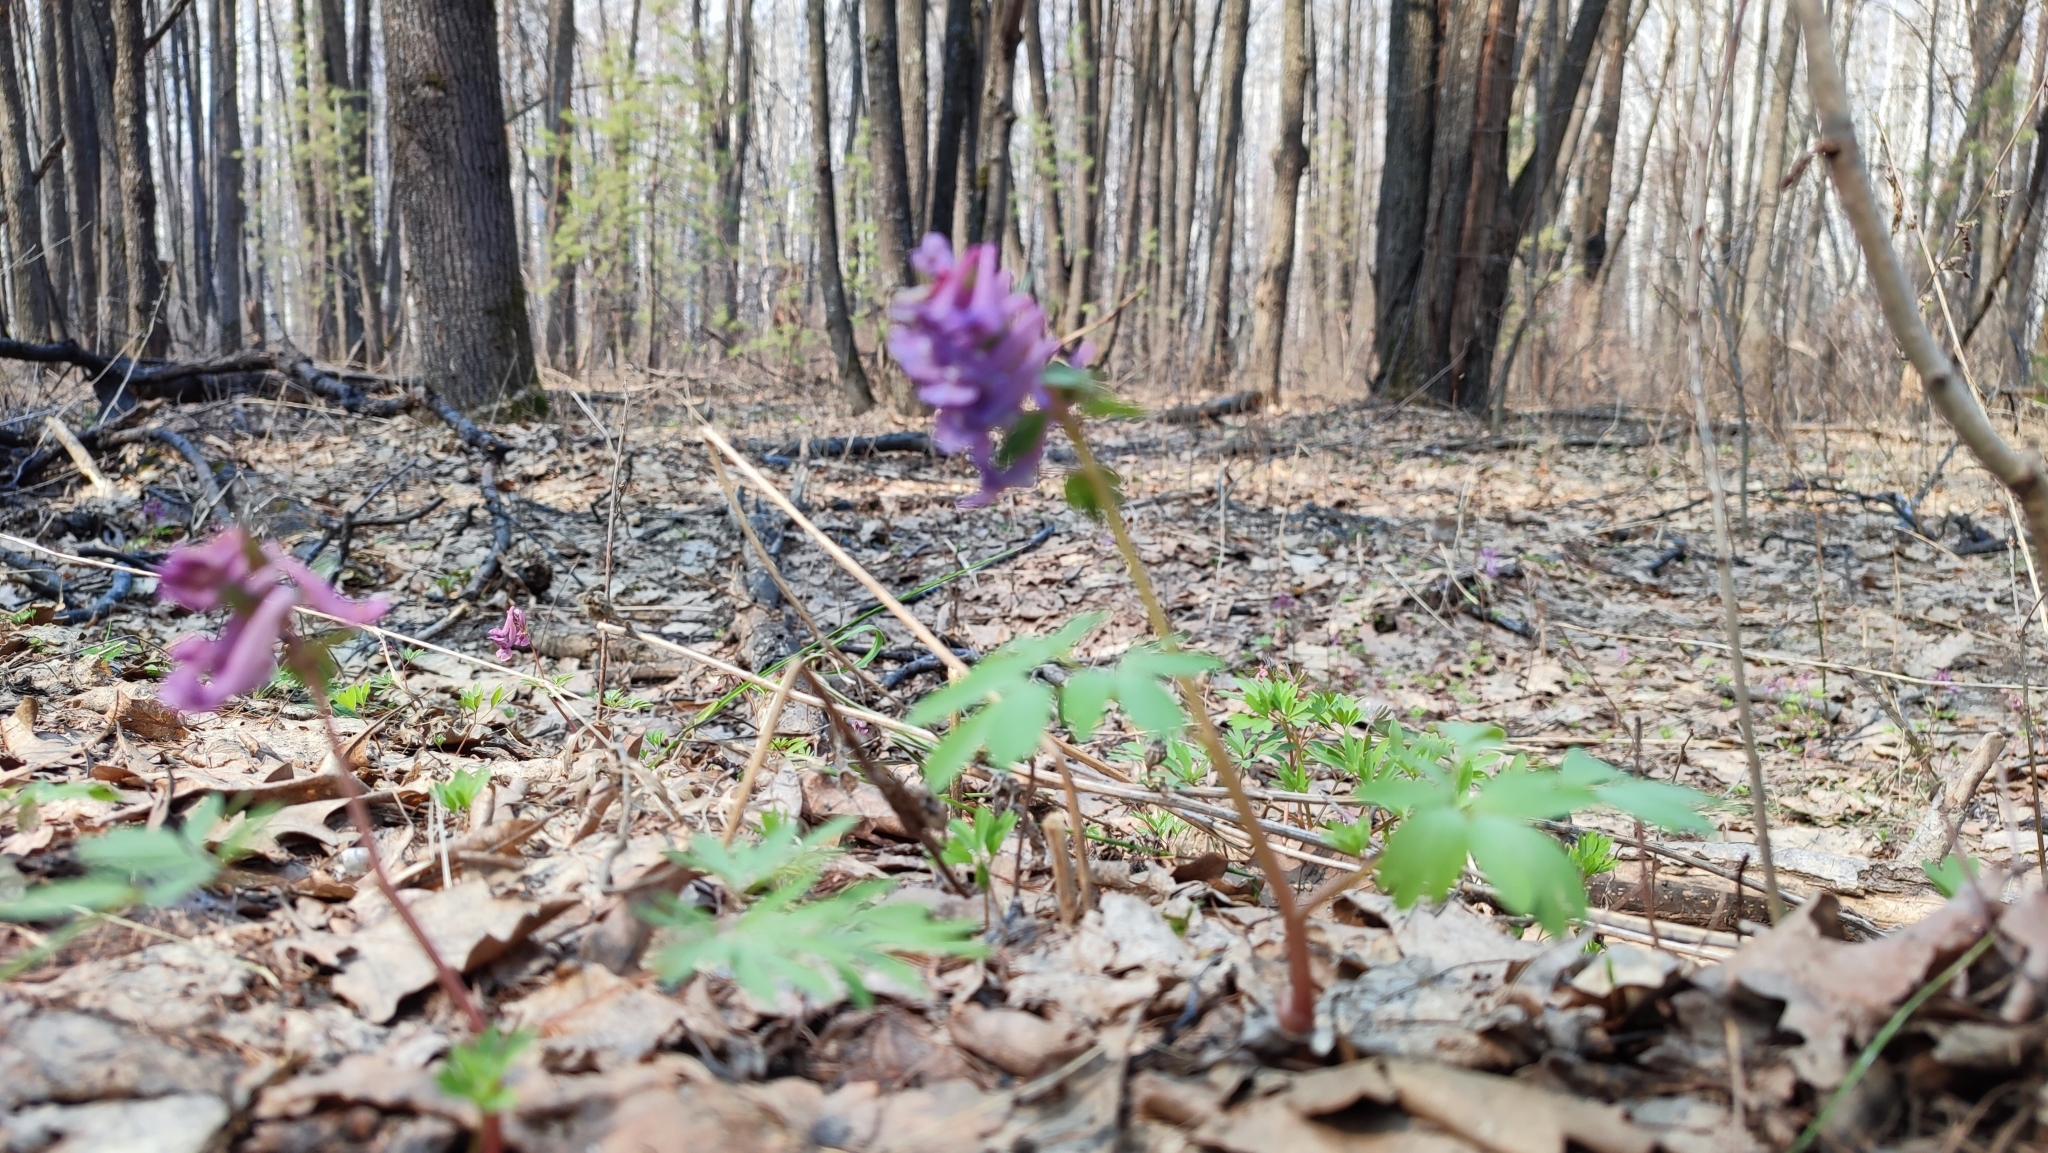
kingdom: Plantae
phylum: Tracheophyta
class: Magnoliopsida
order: Ranunculales
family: Papaveraceae
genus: Corydalis
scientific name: Corydalis solida
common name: Bird-in-a-bush
